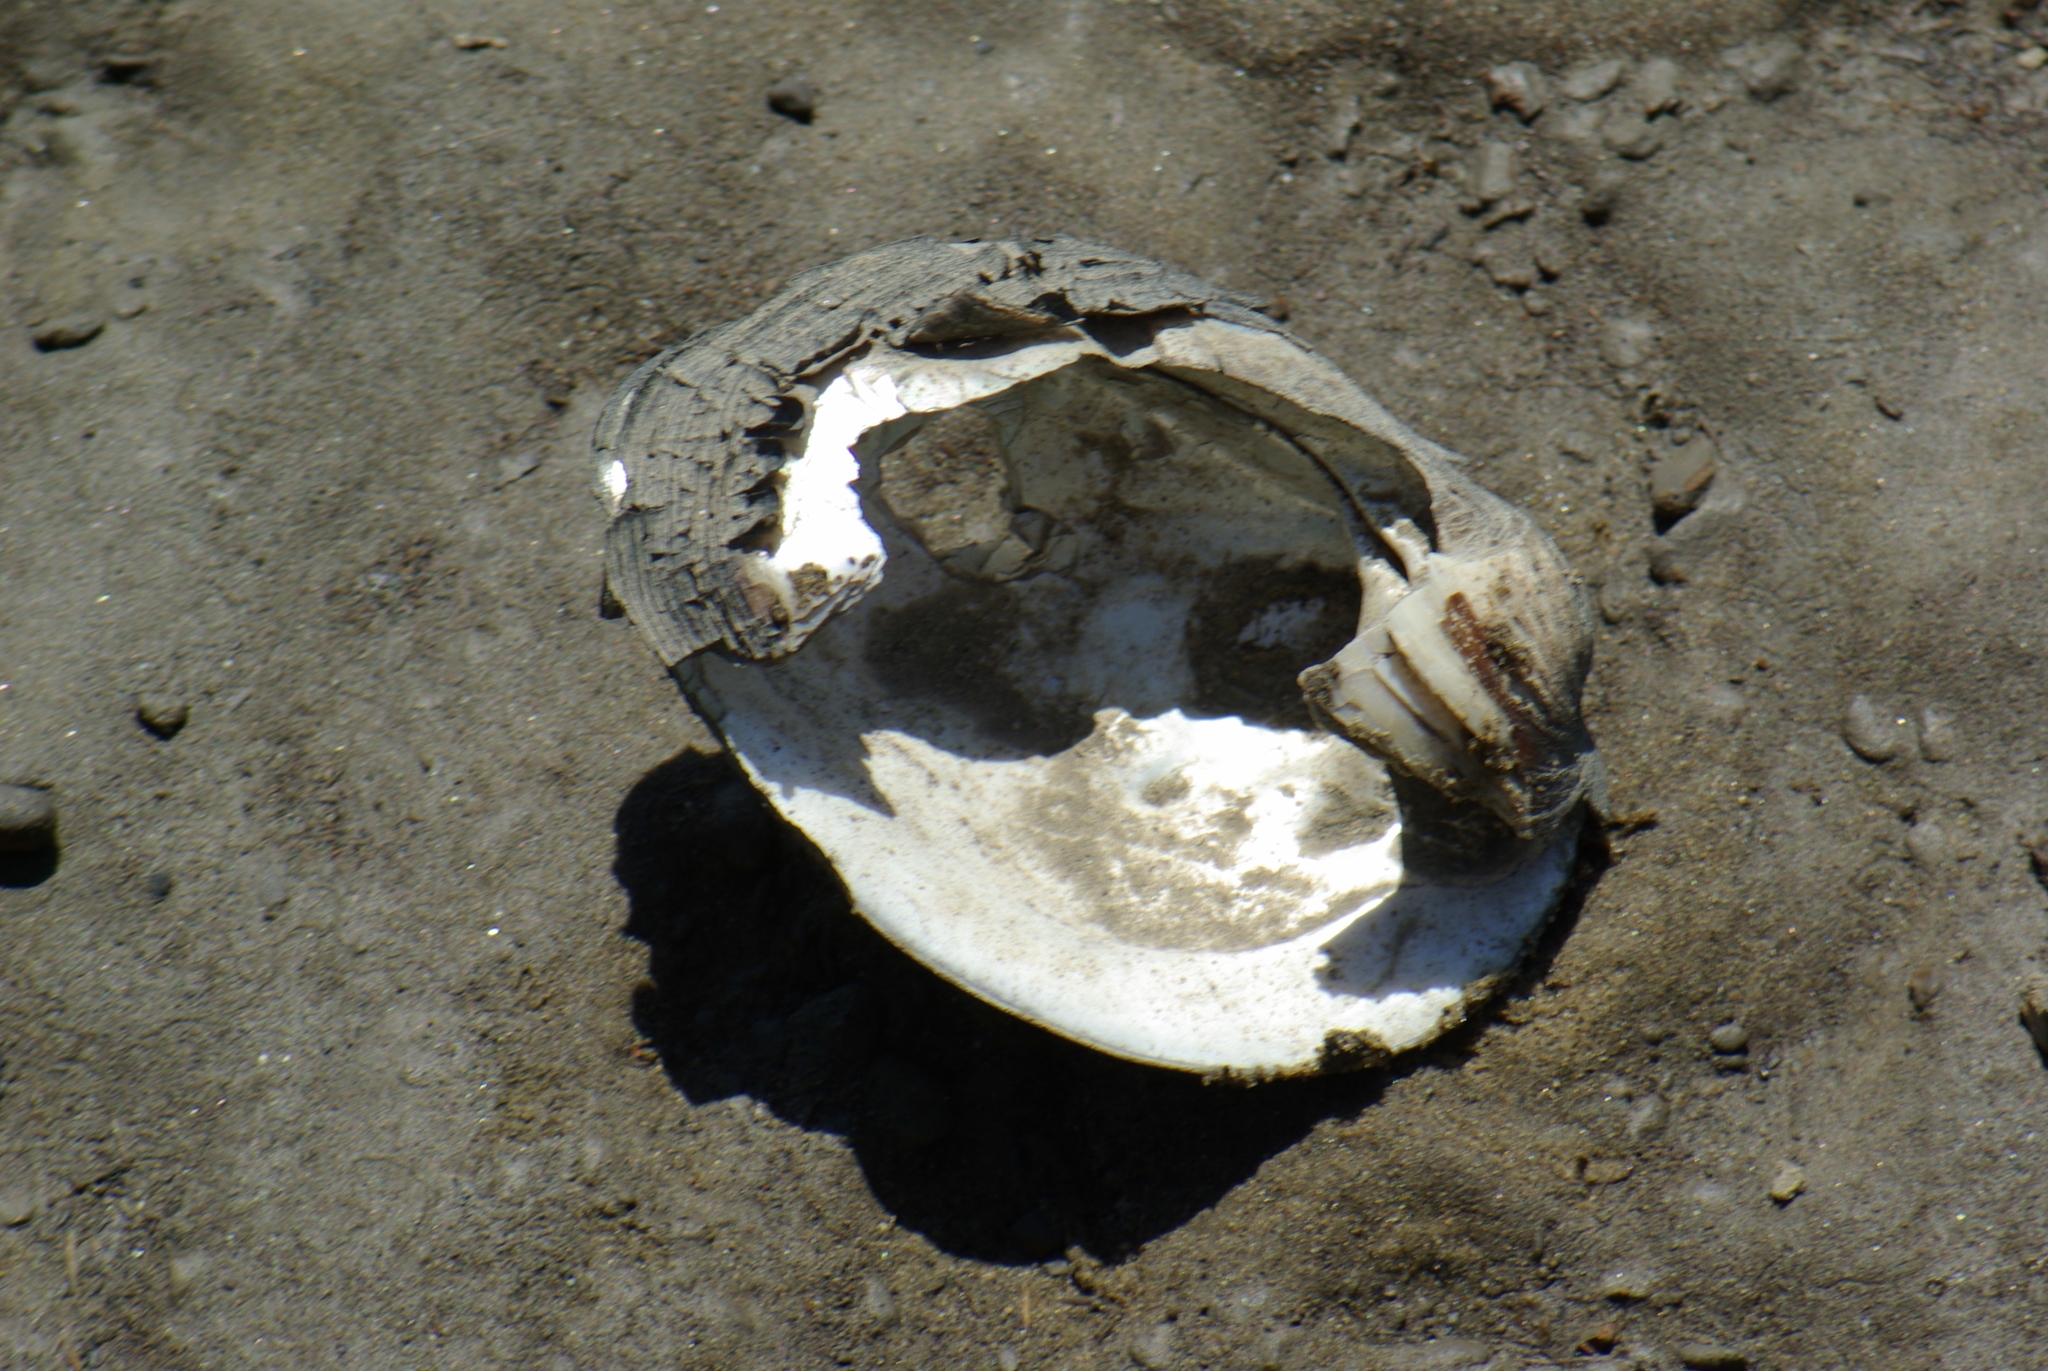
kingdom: Animalia
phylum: Mollusca
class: Bivalvia
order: Unionida
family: Unionidae
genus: Quadrula
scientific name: Quadrula quadrula
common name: Mapleleaf
